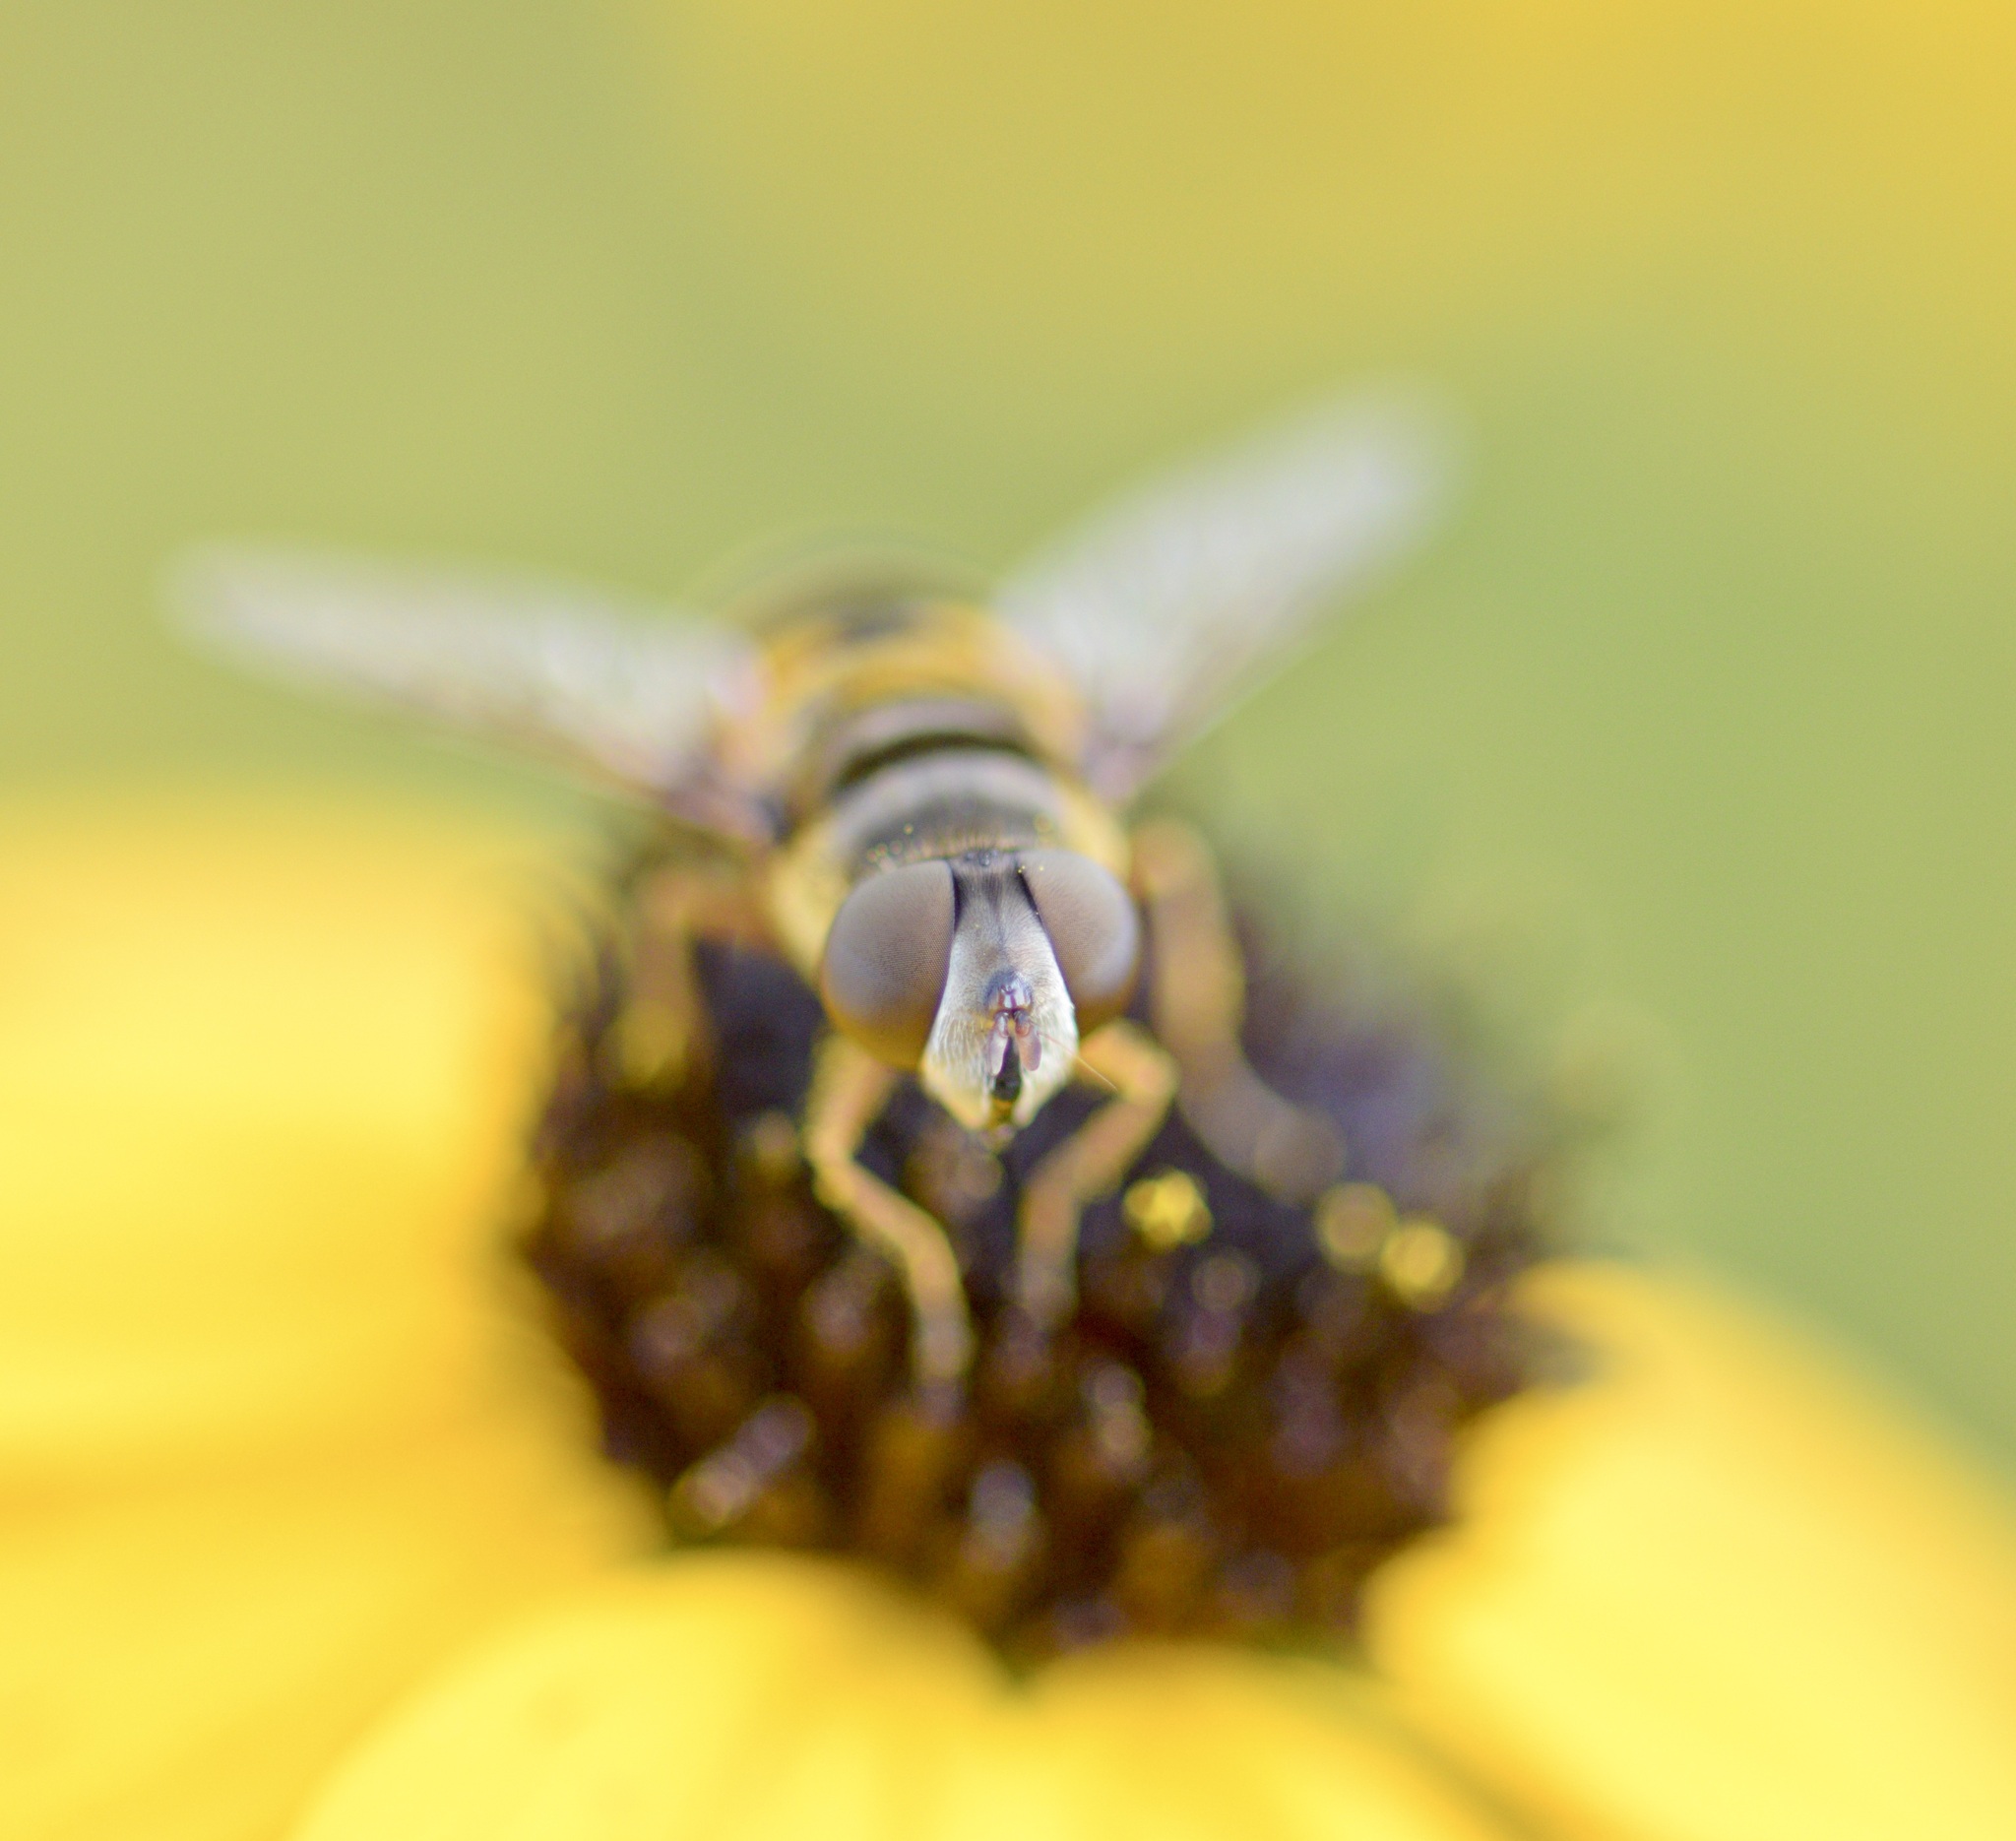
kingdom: Animalia
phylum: Arthropoda
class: Insecta
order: Diptera
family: Syrphidae
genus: Eristalis
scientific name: Eristalis transversa
